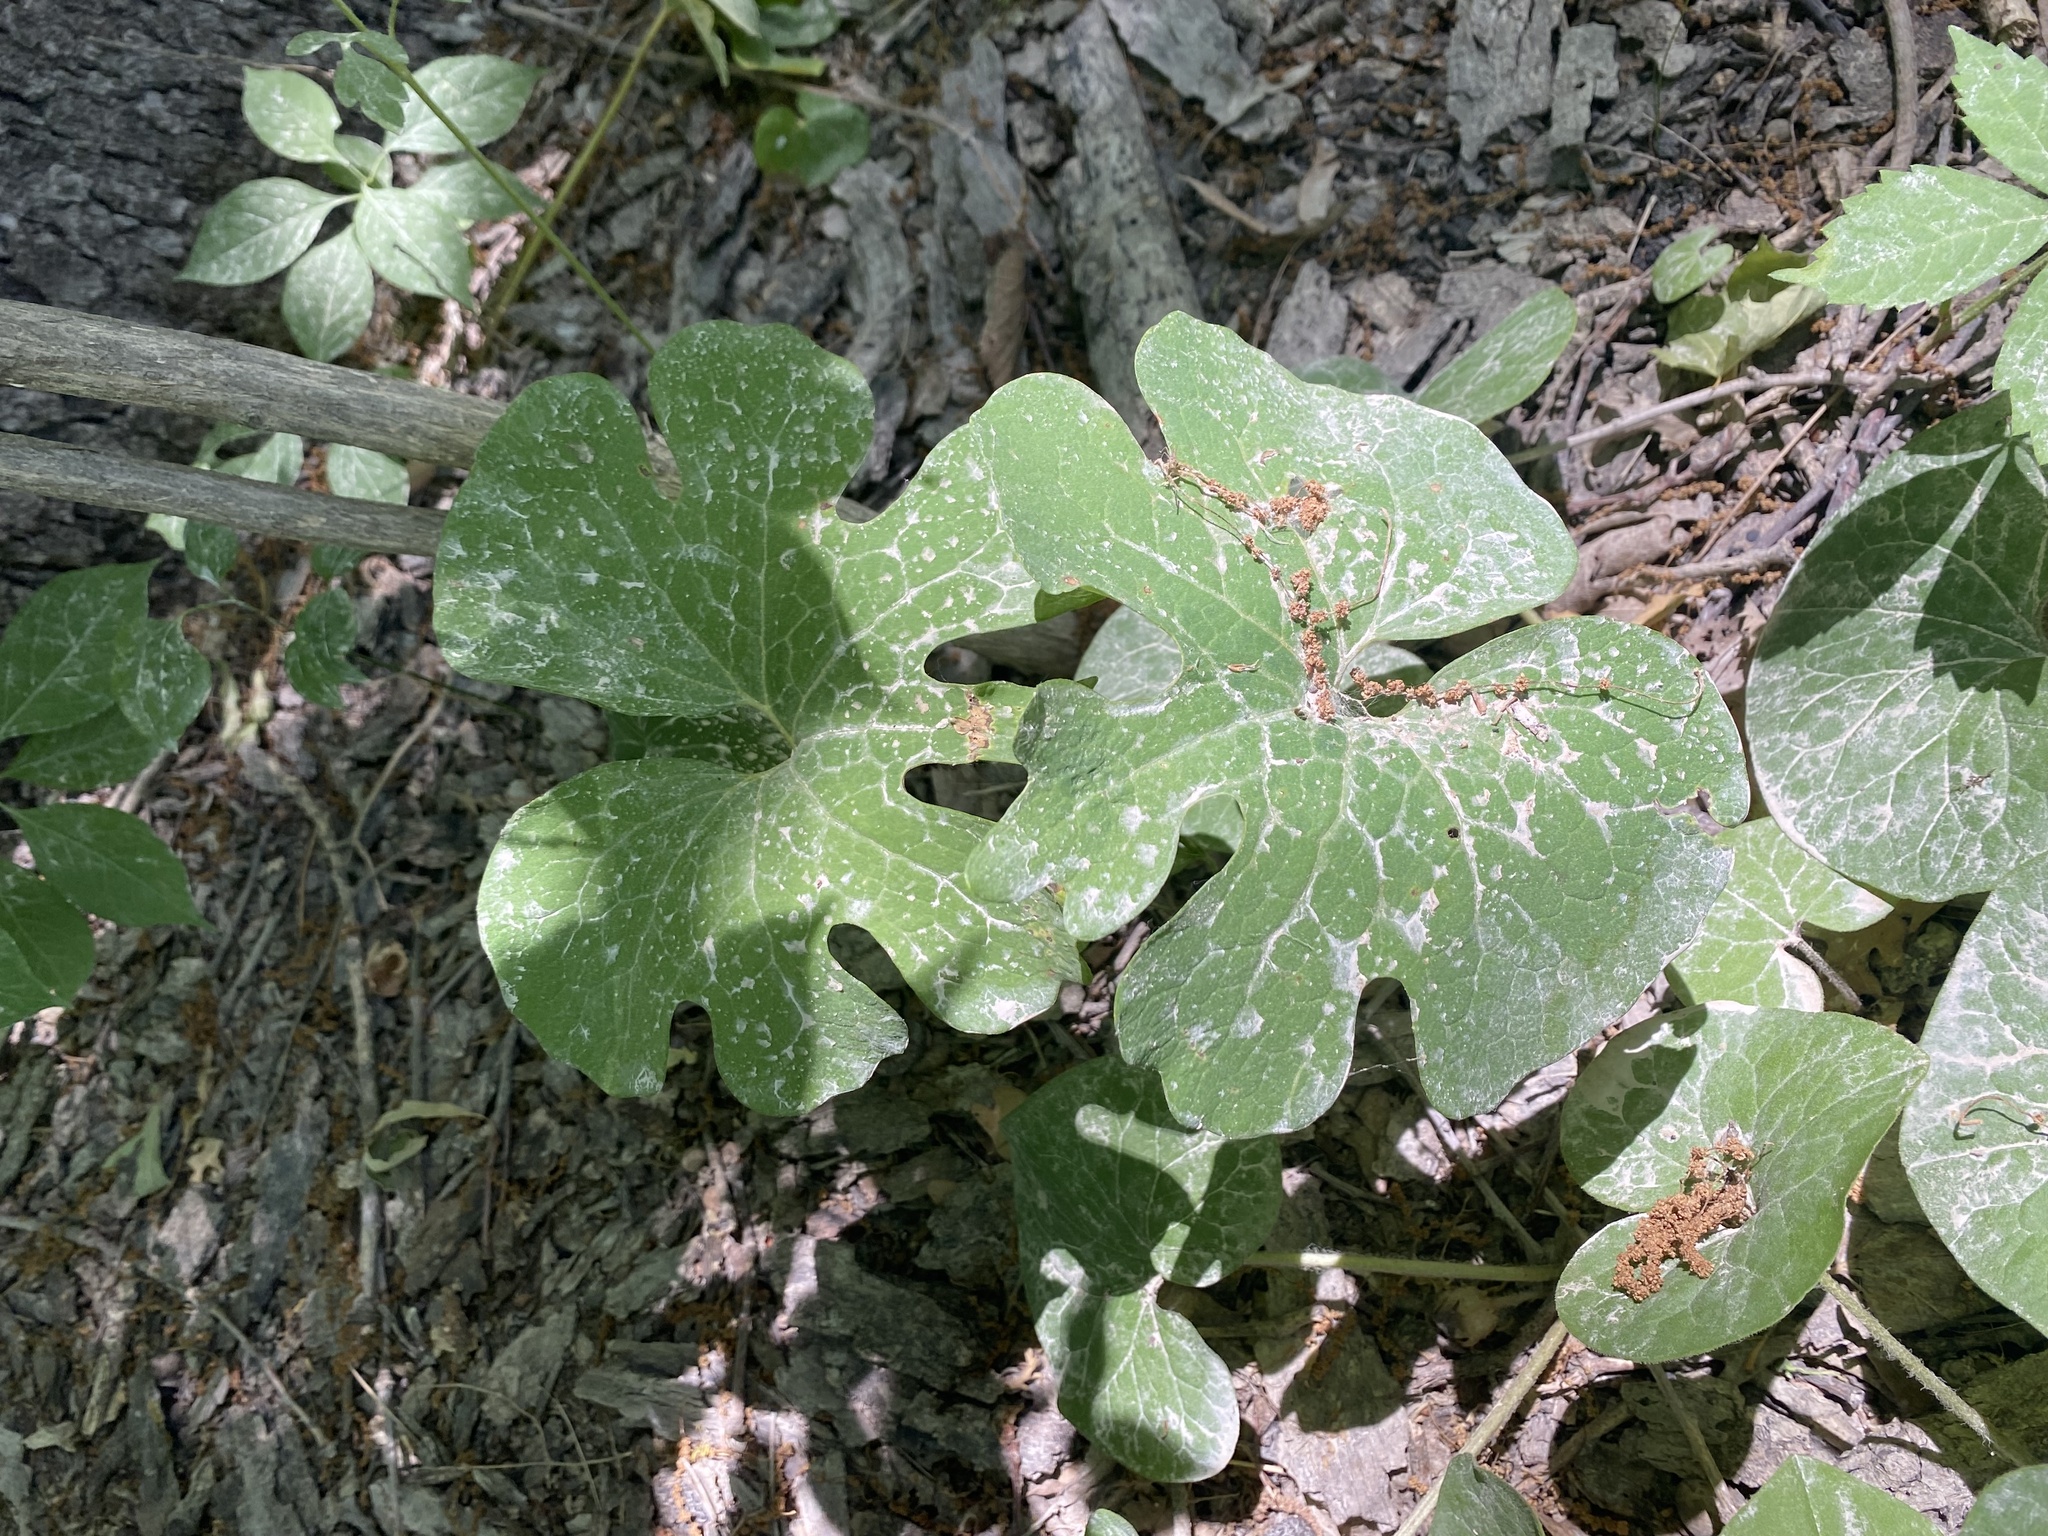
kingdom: Plantae
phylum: Tracheophyta
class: Magnoliopsida
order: Ranunculales
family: Papaveraceae
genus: Sanguinaria
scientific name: Sanguinaria canadensis
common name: Bloodroot
